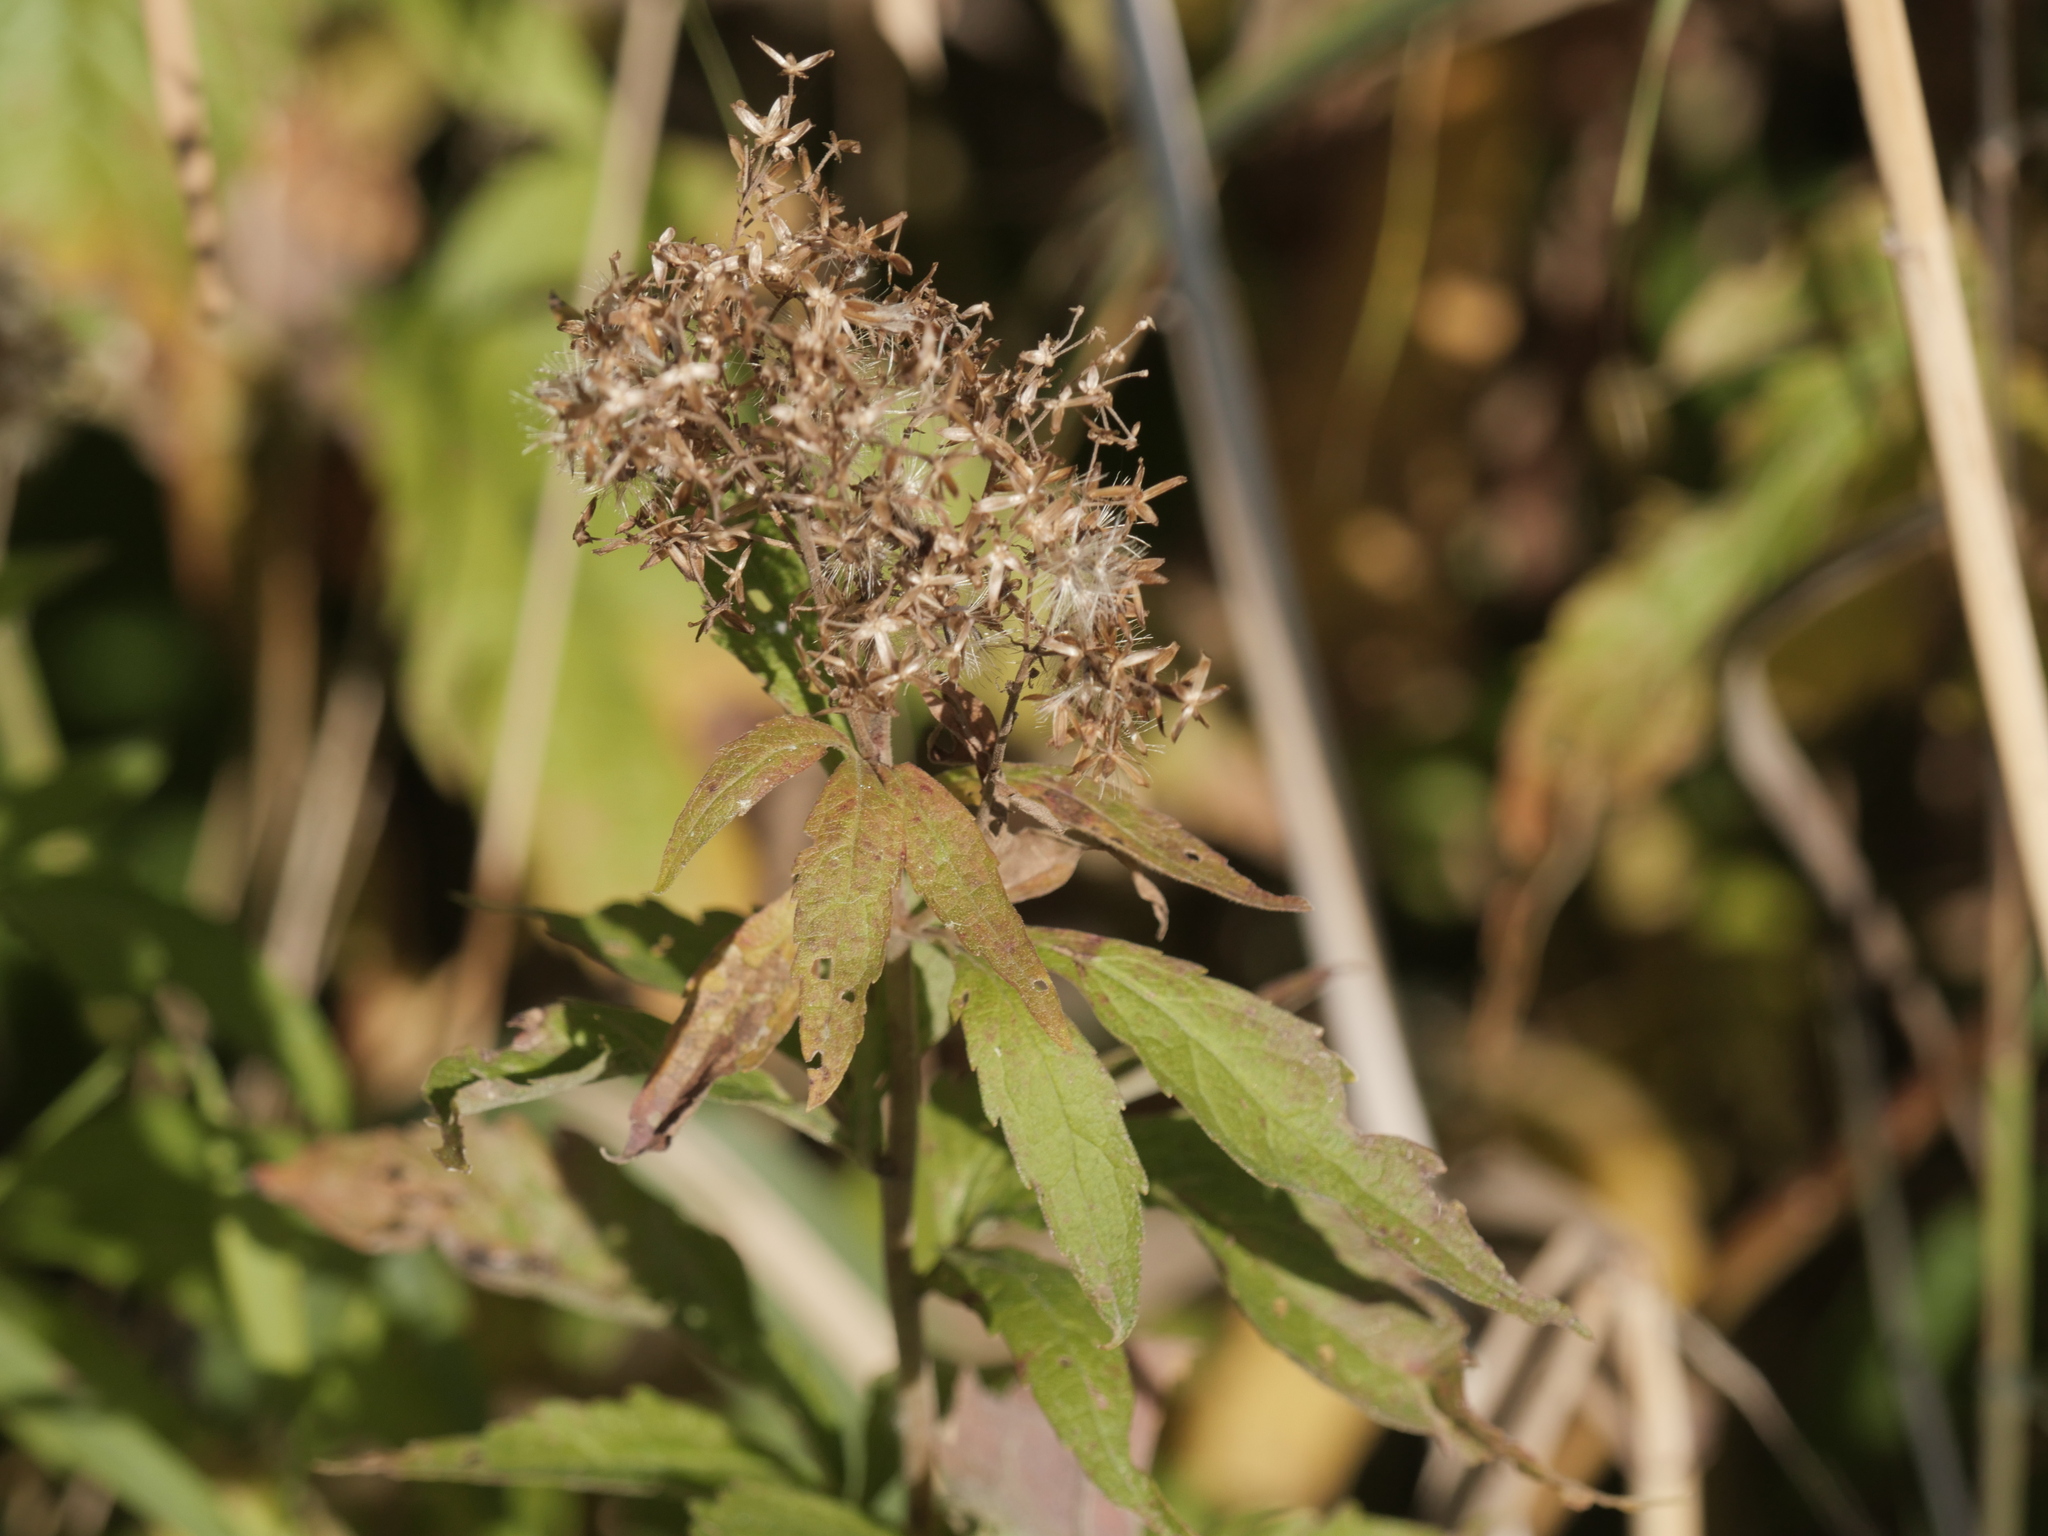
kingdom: Plantae
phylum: Tracheophyta
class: Magnoliopsida
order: Asterales
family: Asteraceae
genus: Eupatorium
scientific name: Eupatorium cannabinum
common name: Hemp-agrimony
